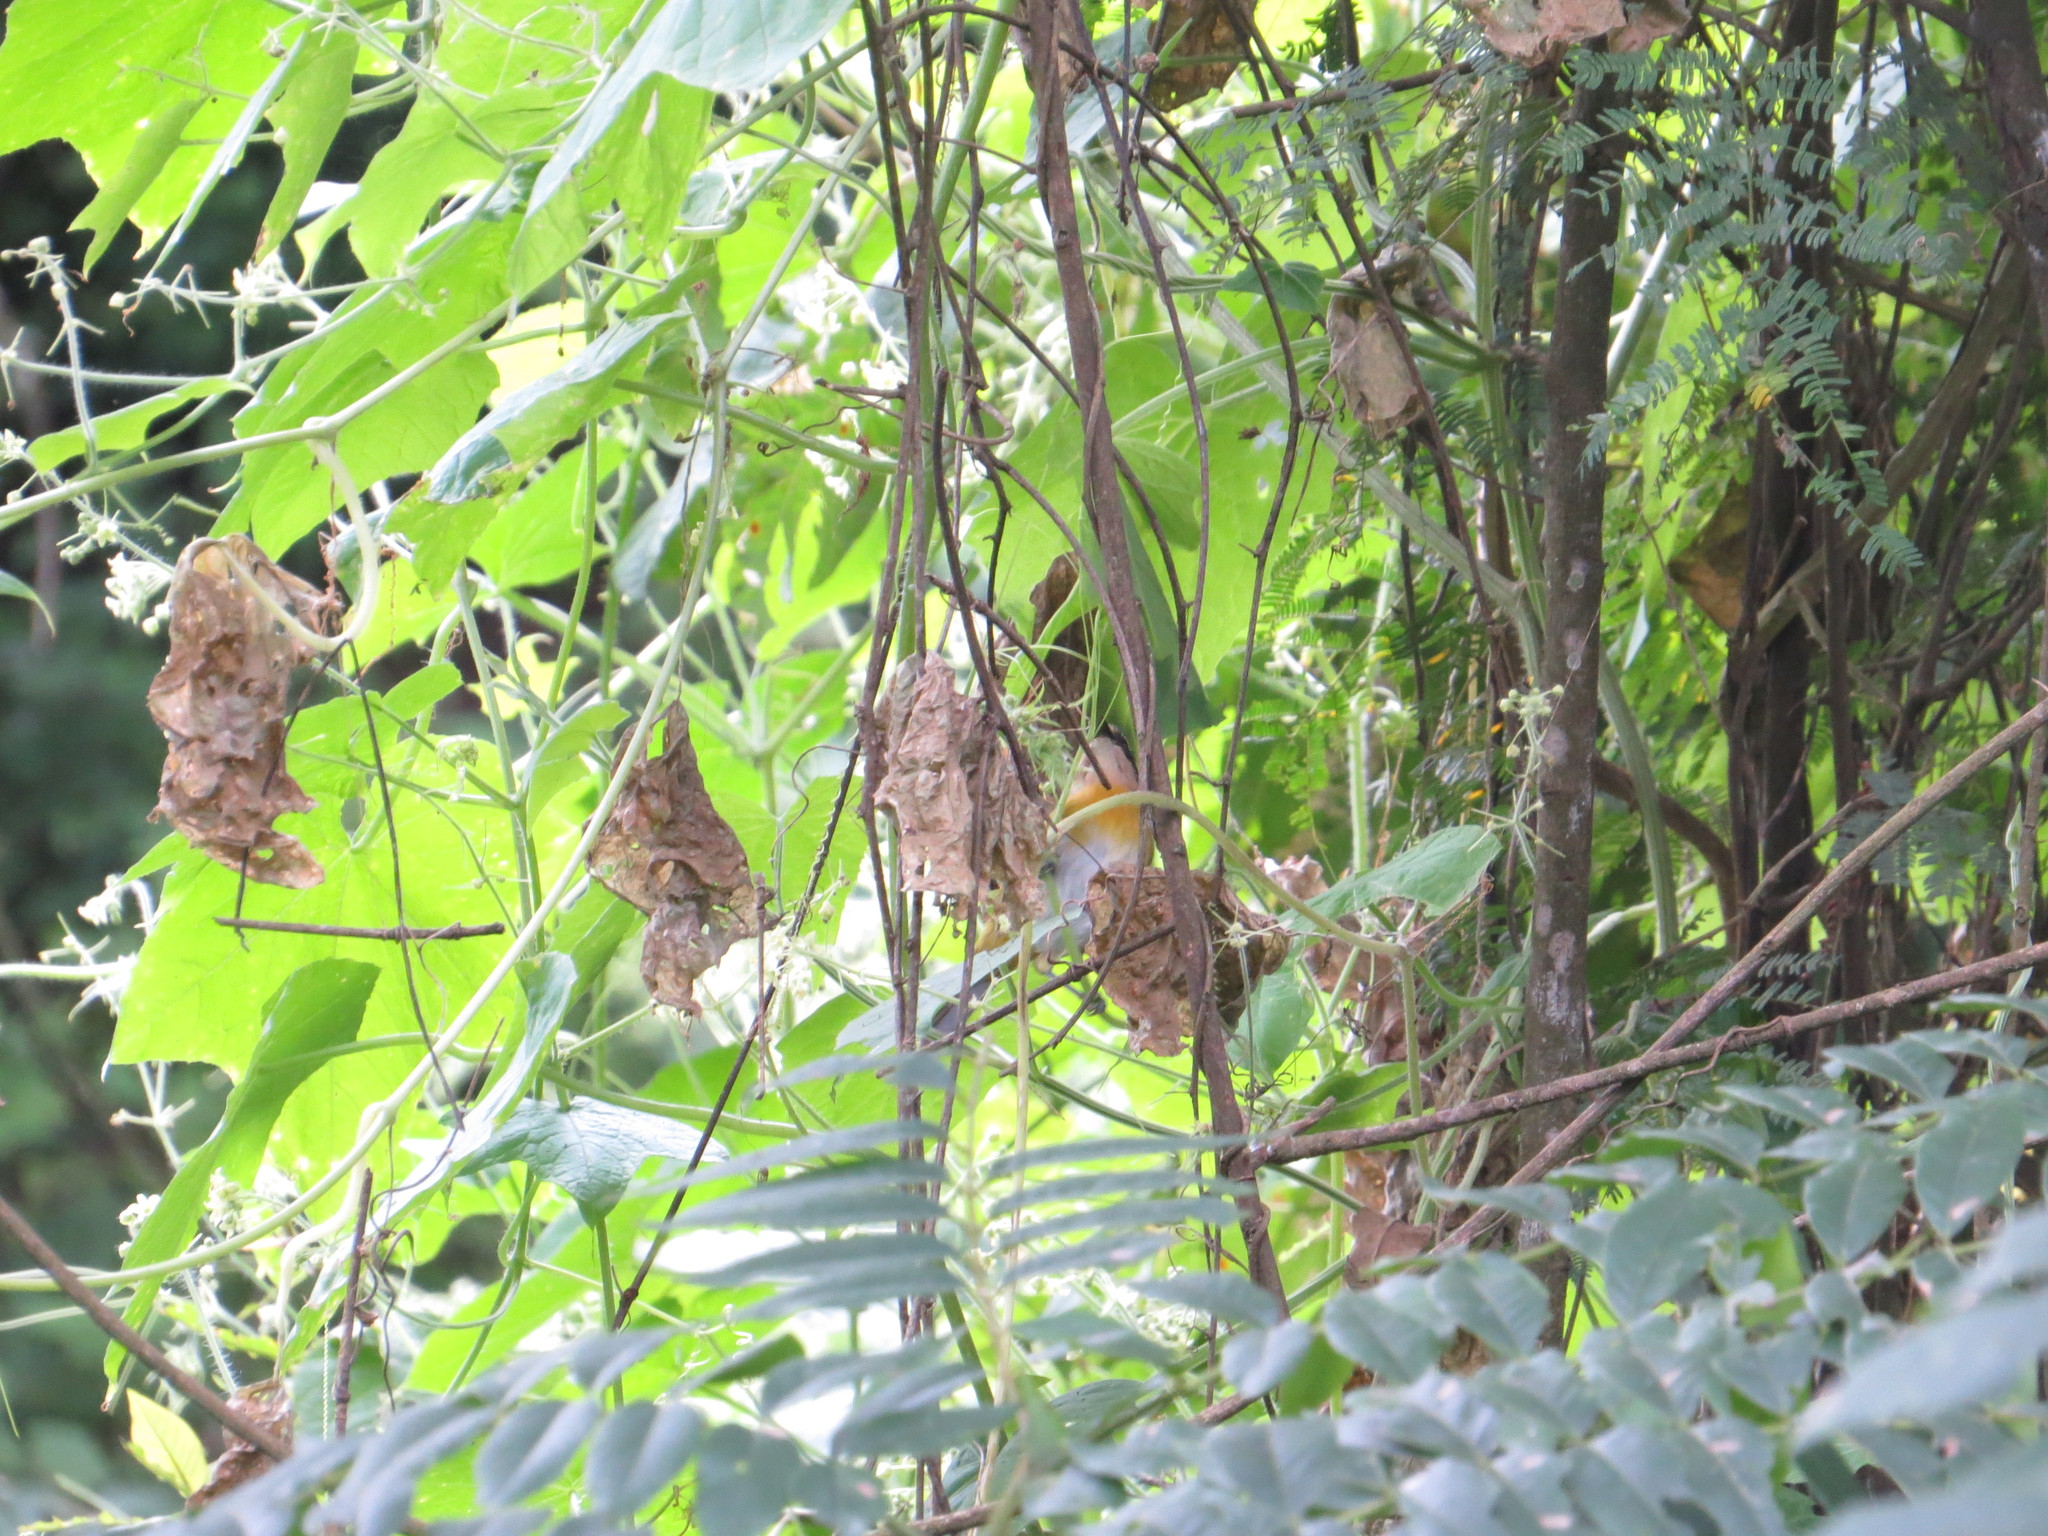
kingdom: Animalia
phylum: Chordata
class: Aves
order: Passeriformes
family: Passerellidae
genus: Chlorospingus
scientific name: Chlorospingus flavopectus
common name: Common chlorospingus
